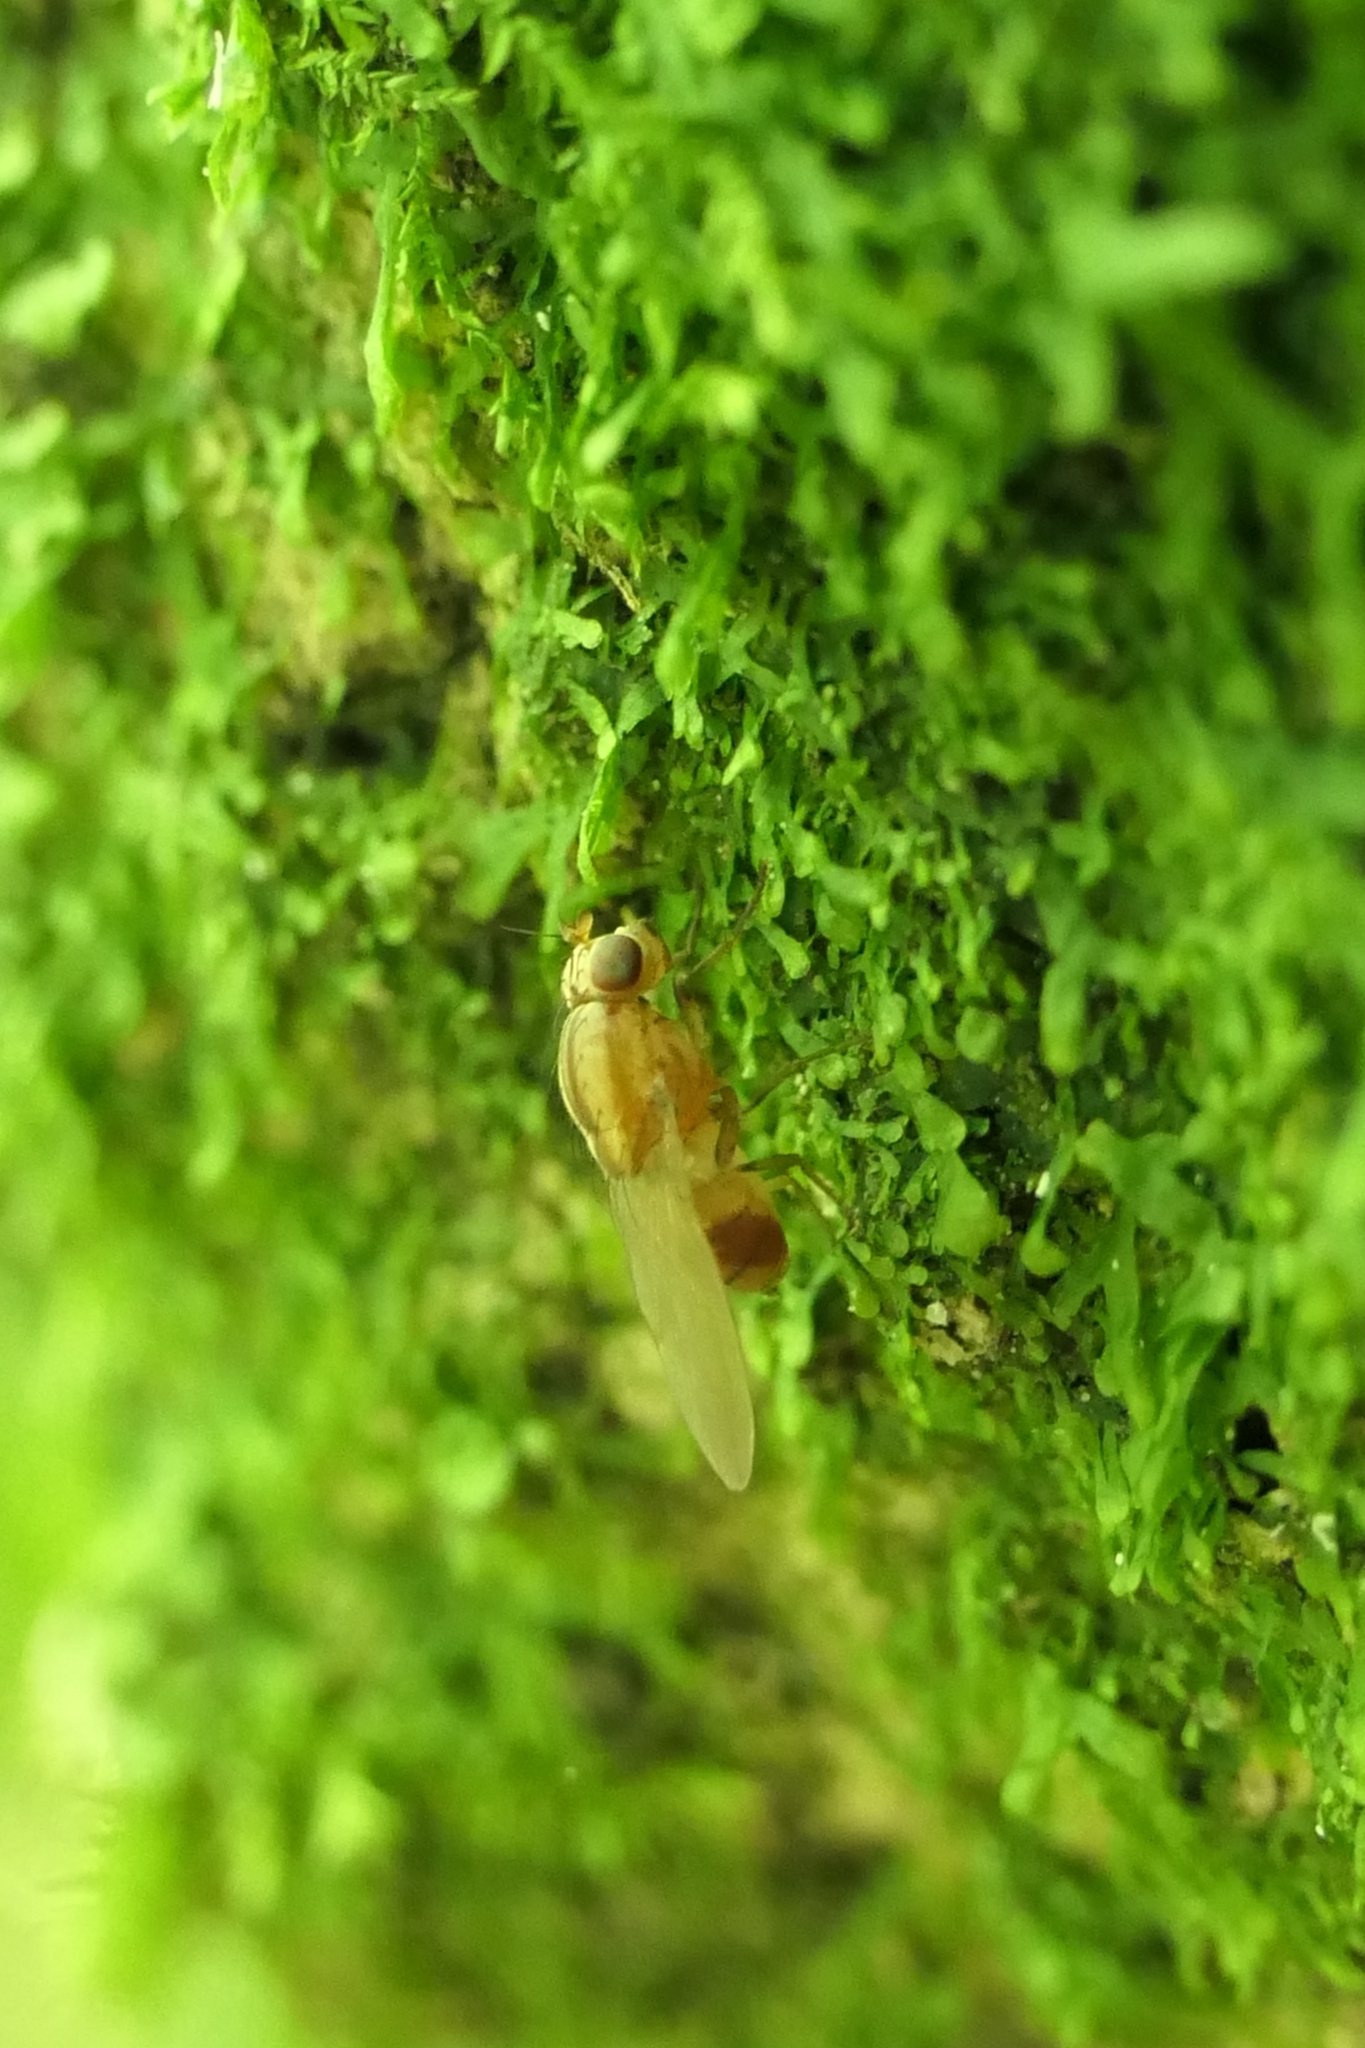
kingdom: Animalia
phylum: Arthropoda
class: Insecta
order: Diptera
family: Lauxaniidae
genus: Sapromyza
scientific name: Sapromyza neozelandica
